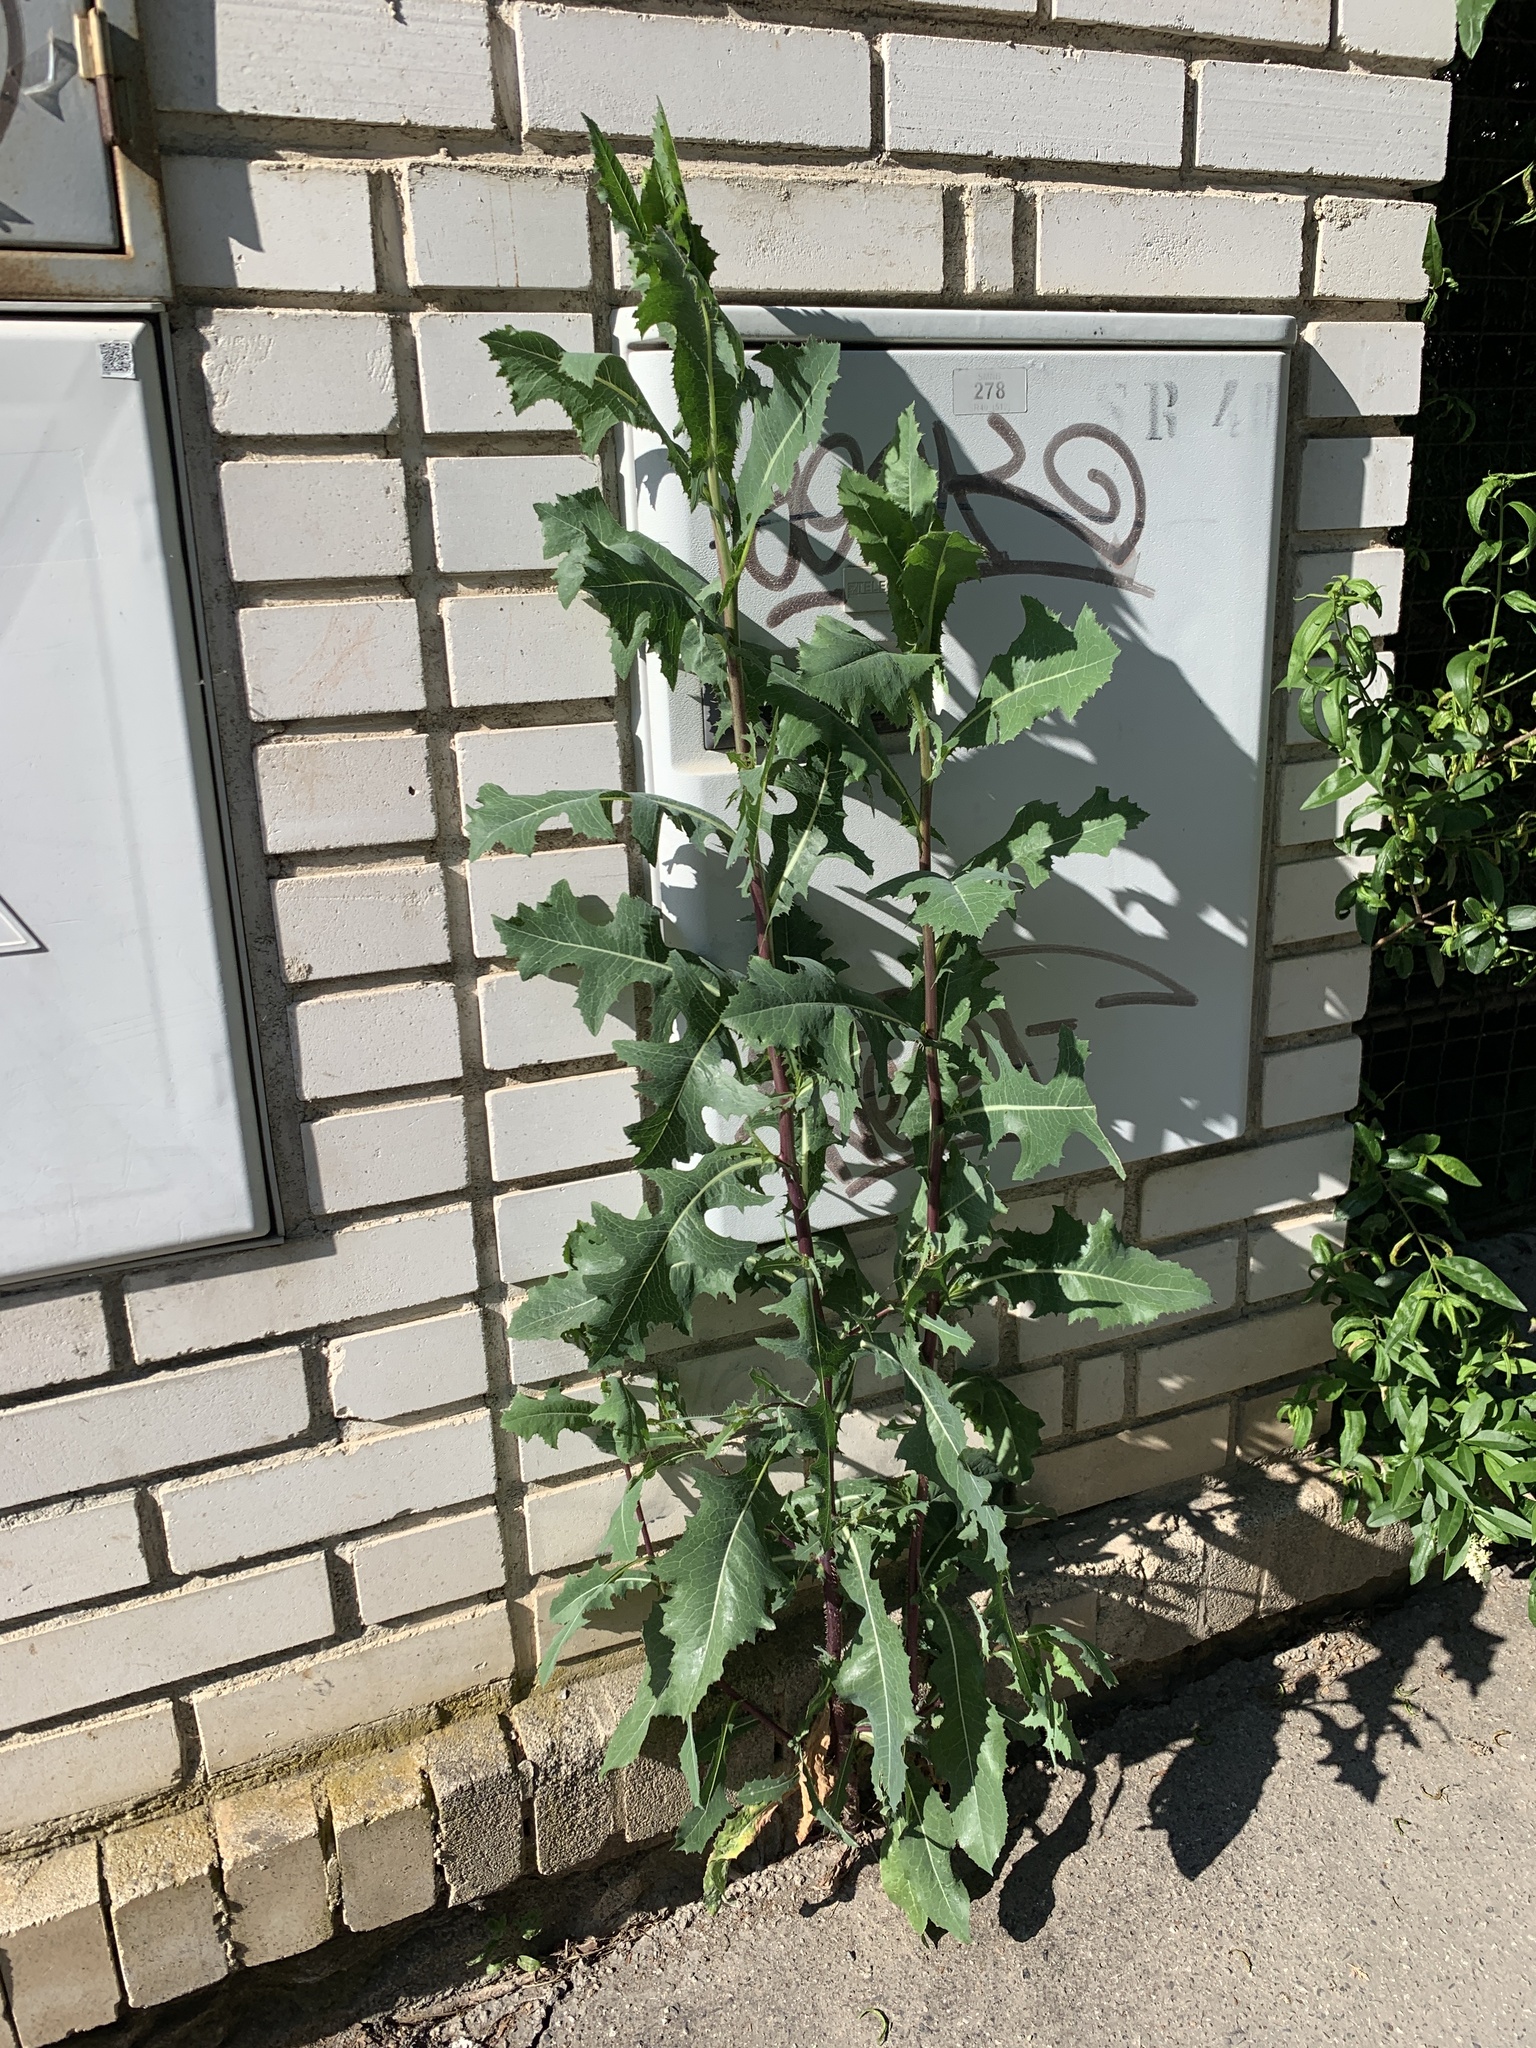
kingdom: Plantae
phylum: Tracheophyta
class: Magnoliopsida
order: Asterales
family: Asteraceae
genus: Lactuca
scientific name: Lactuca serriola
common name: Prickly lettuce
